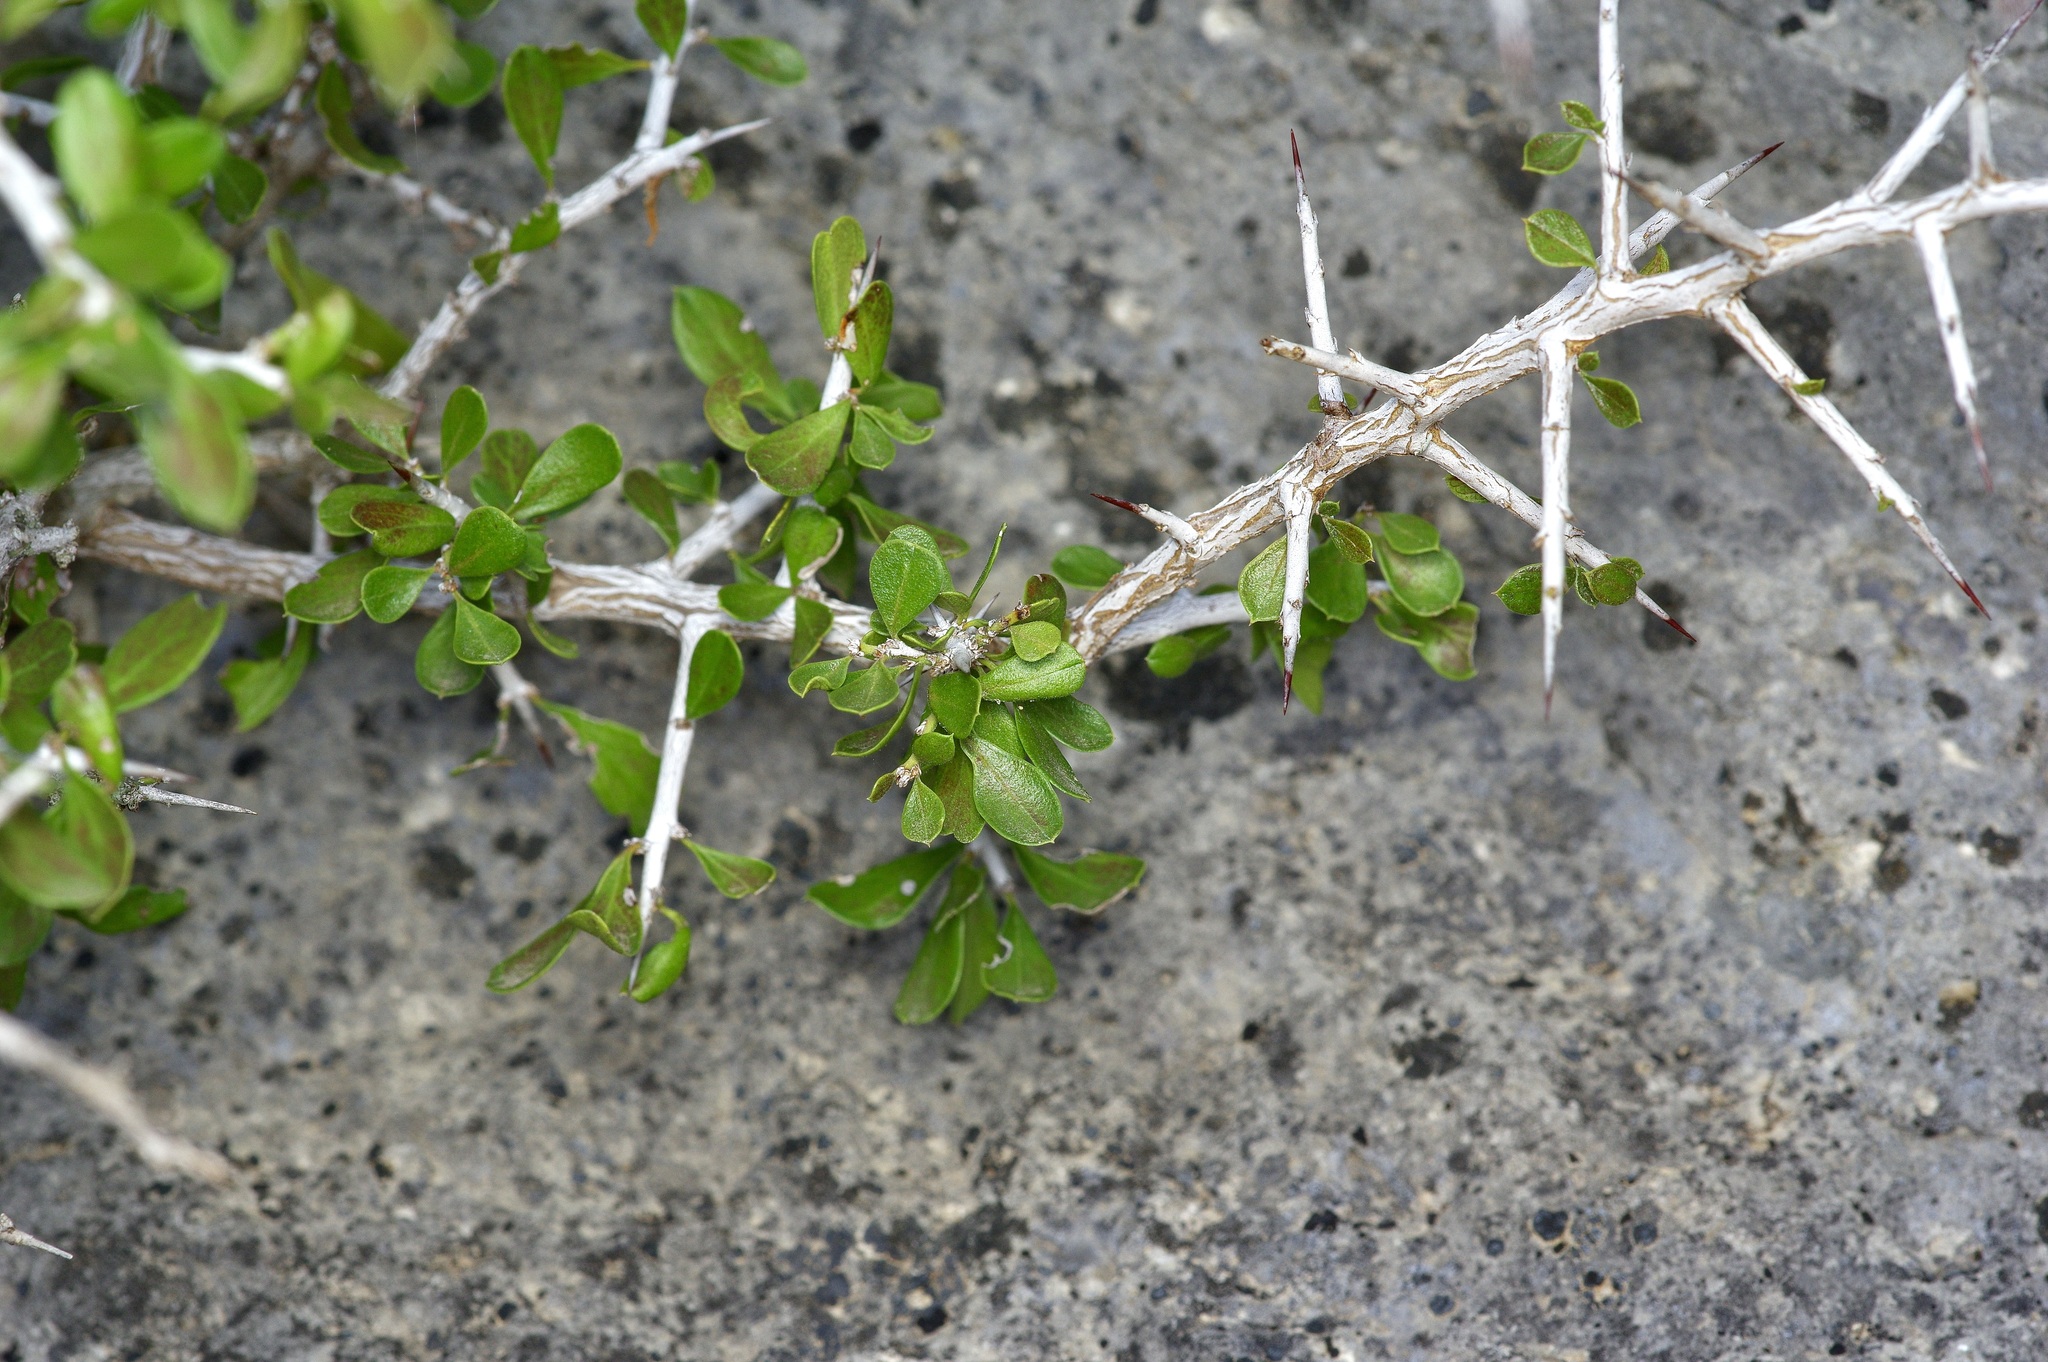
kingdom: Plantae
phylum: Tracheophyta
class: Magnoliopsida
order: Rosales
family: Rhamnaceae
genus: Condalia
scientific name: Condalia viridis
